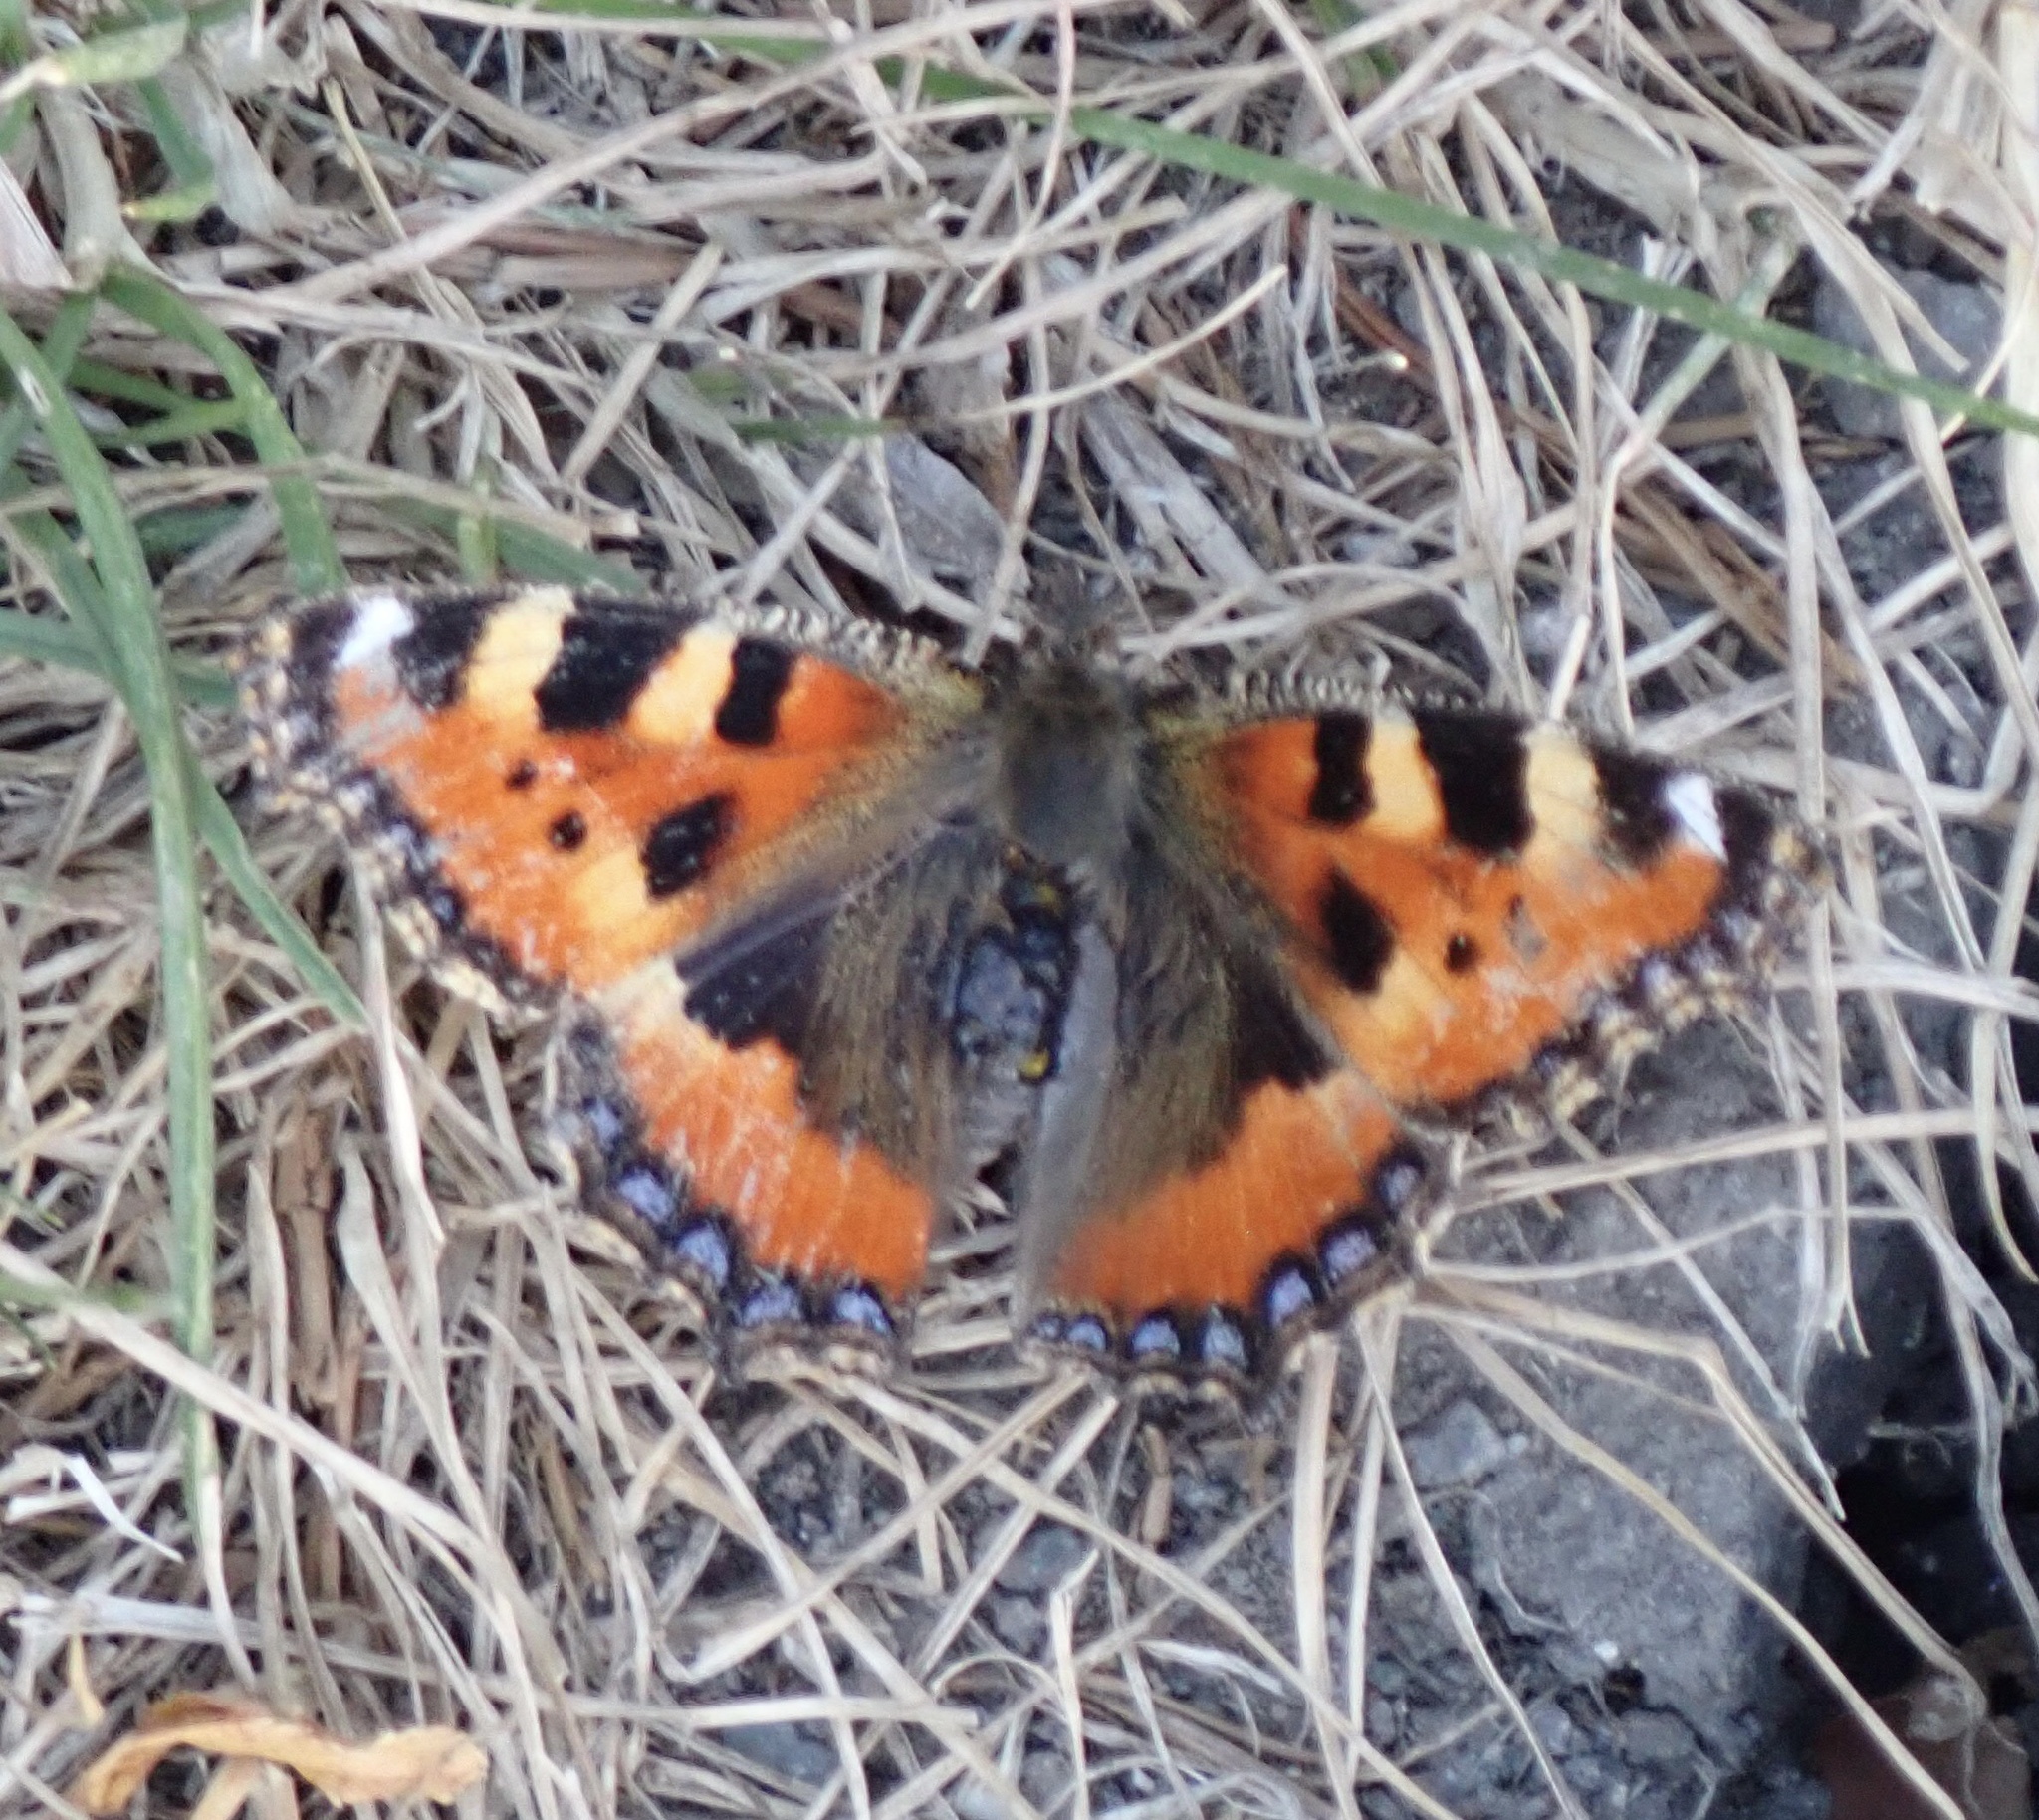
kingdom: Animalia
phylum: Arthropoda
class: Insecta
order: Lepidoptera
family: Nymphalidae
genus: Aglais
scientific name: Aglais urticae
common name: Small tortoiseshell
